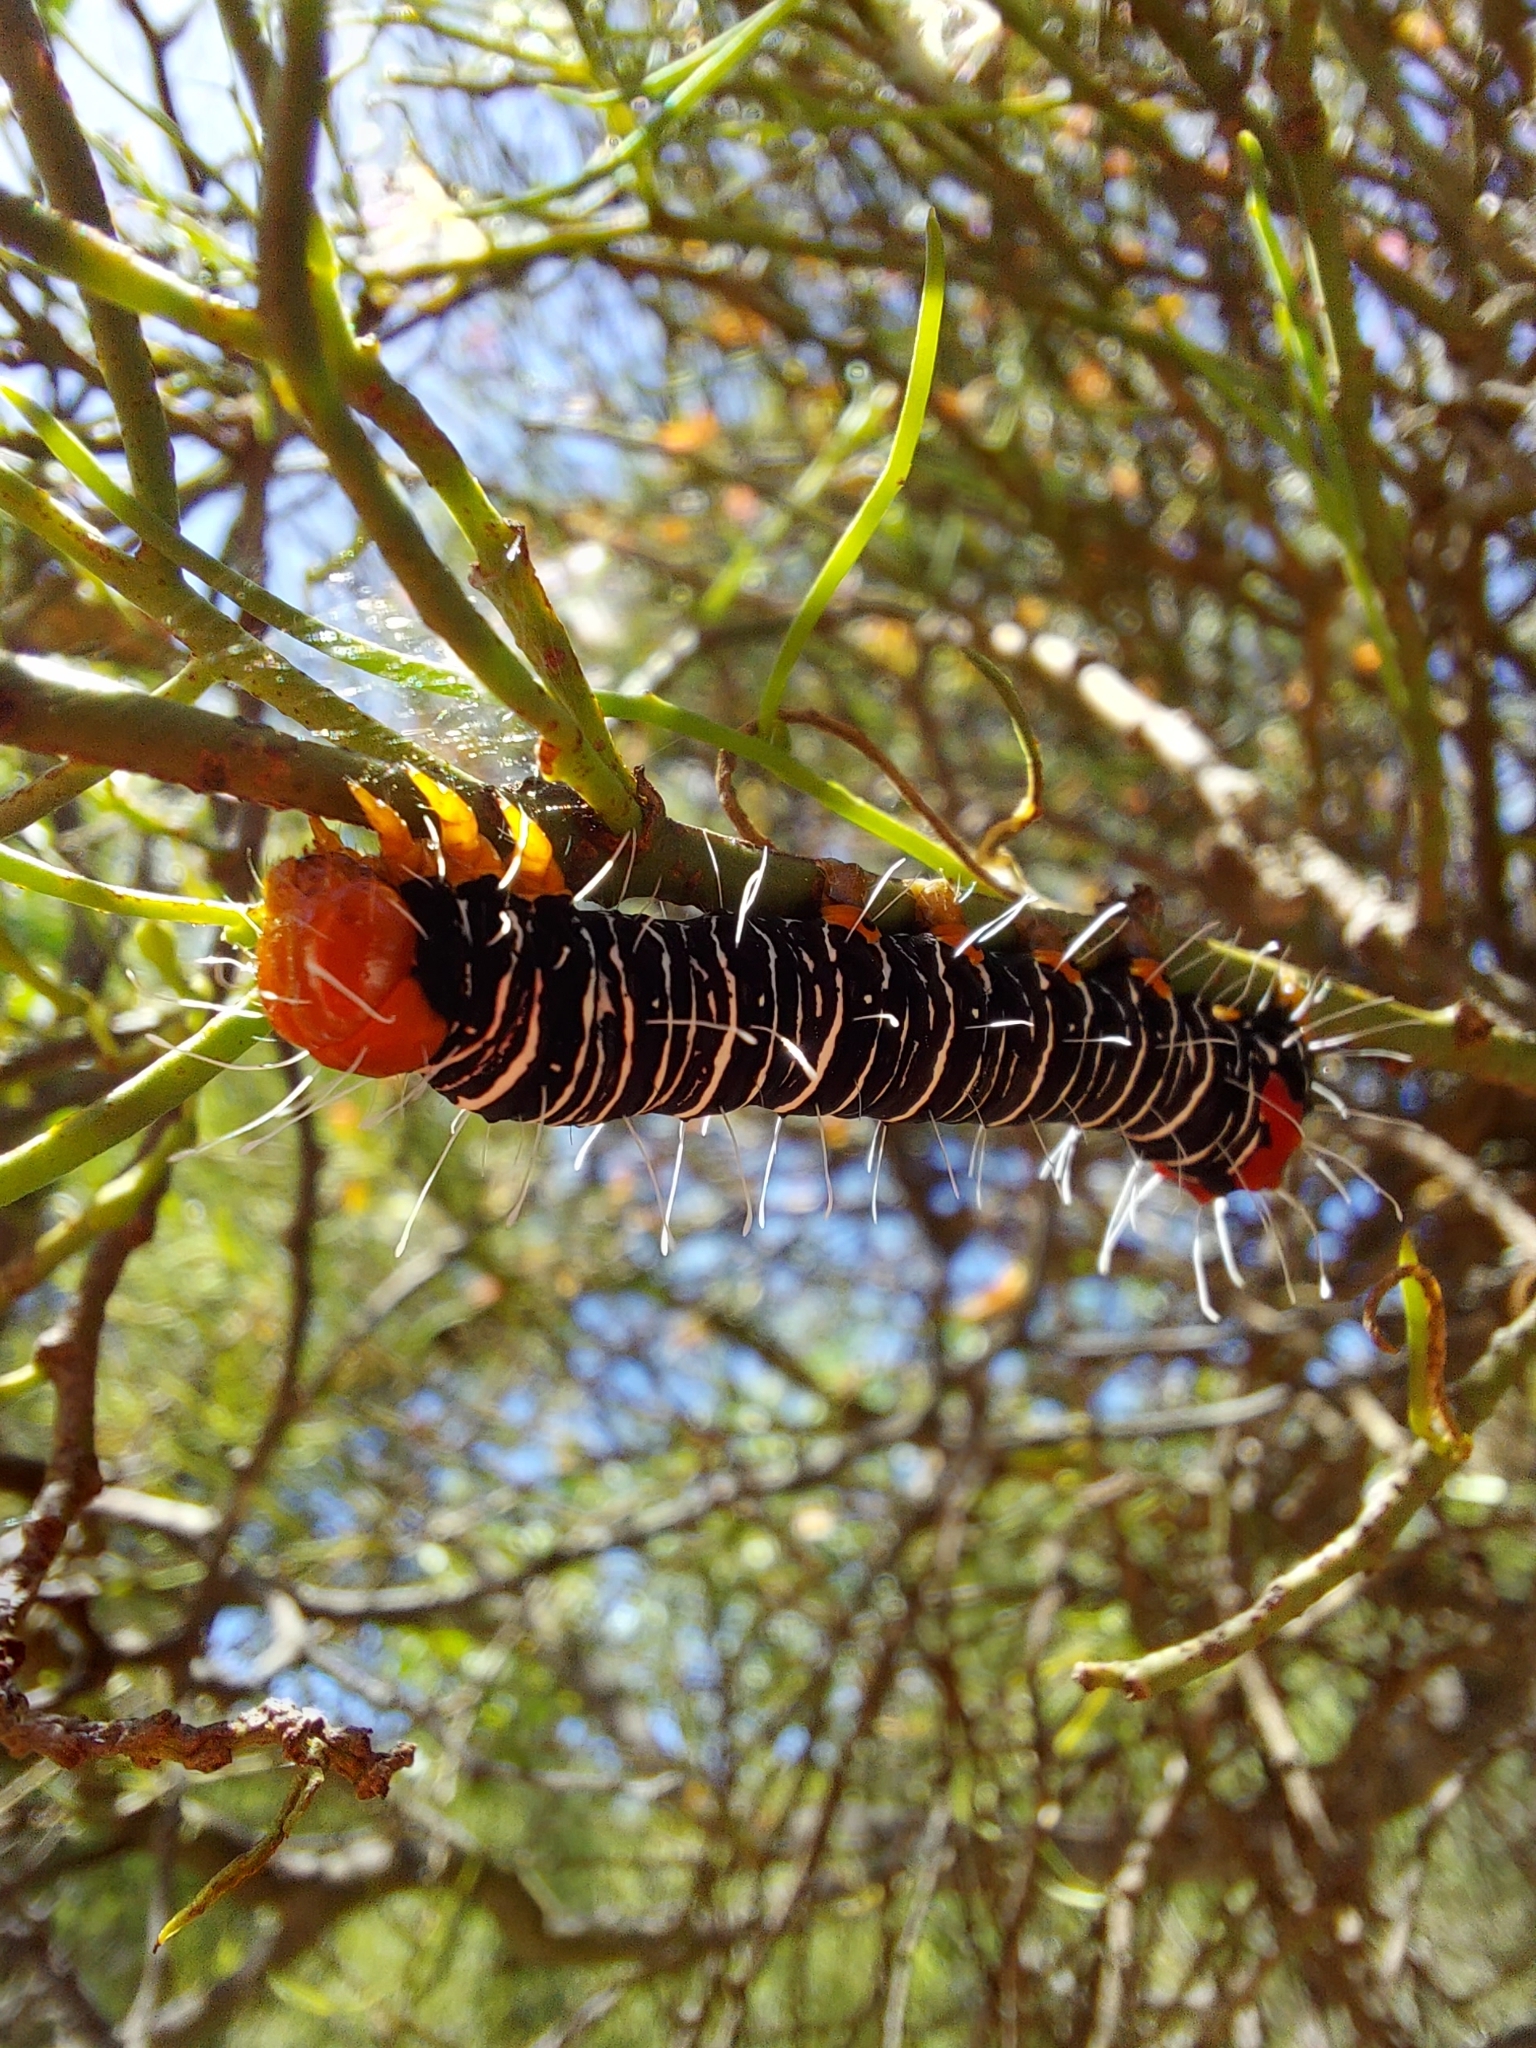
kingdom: Animalia
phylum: Arthropoda
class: Insecta
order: Lepidoptera
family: Noctuidae
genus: Comocrus
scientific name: Comocrus behri
